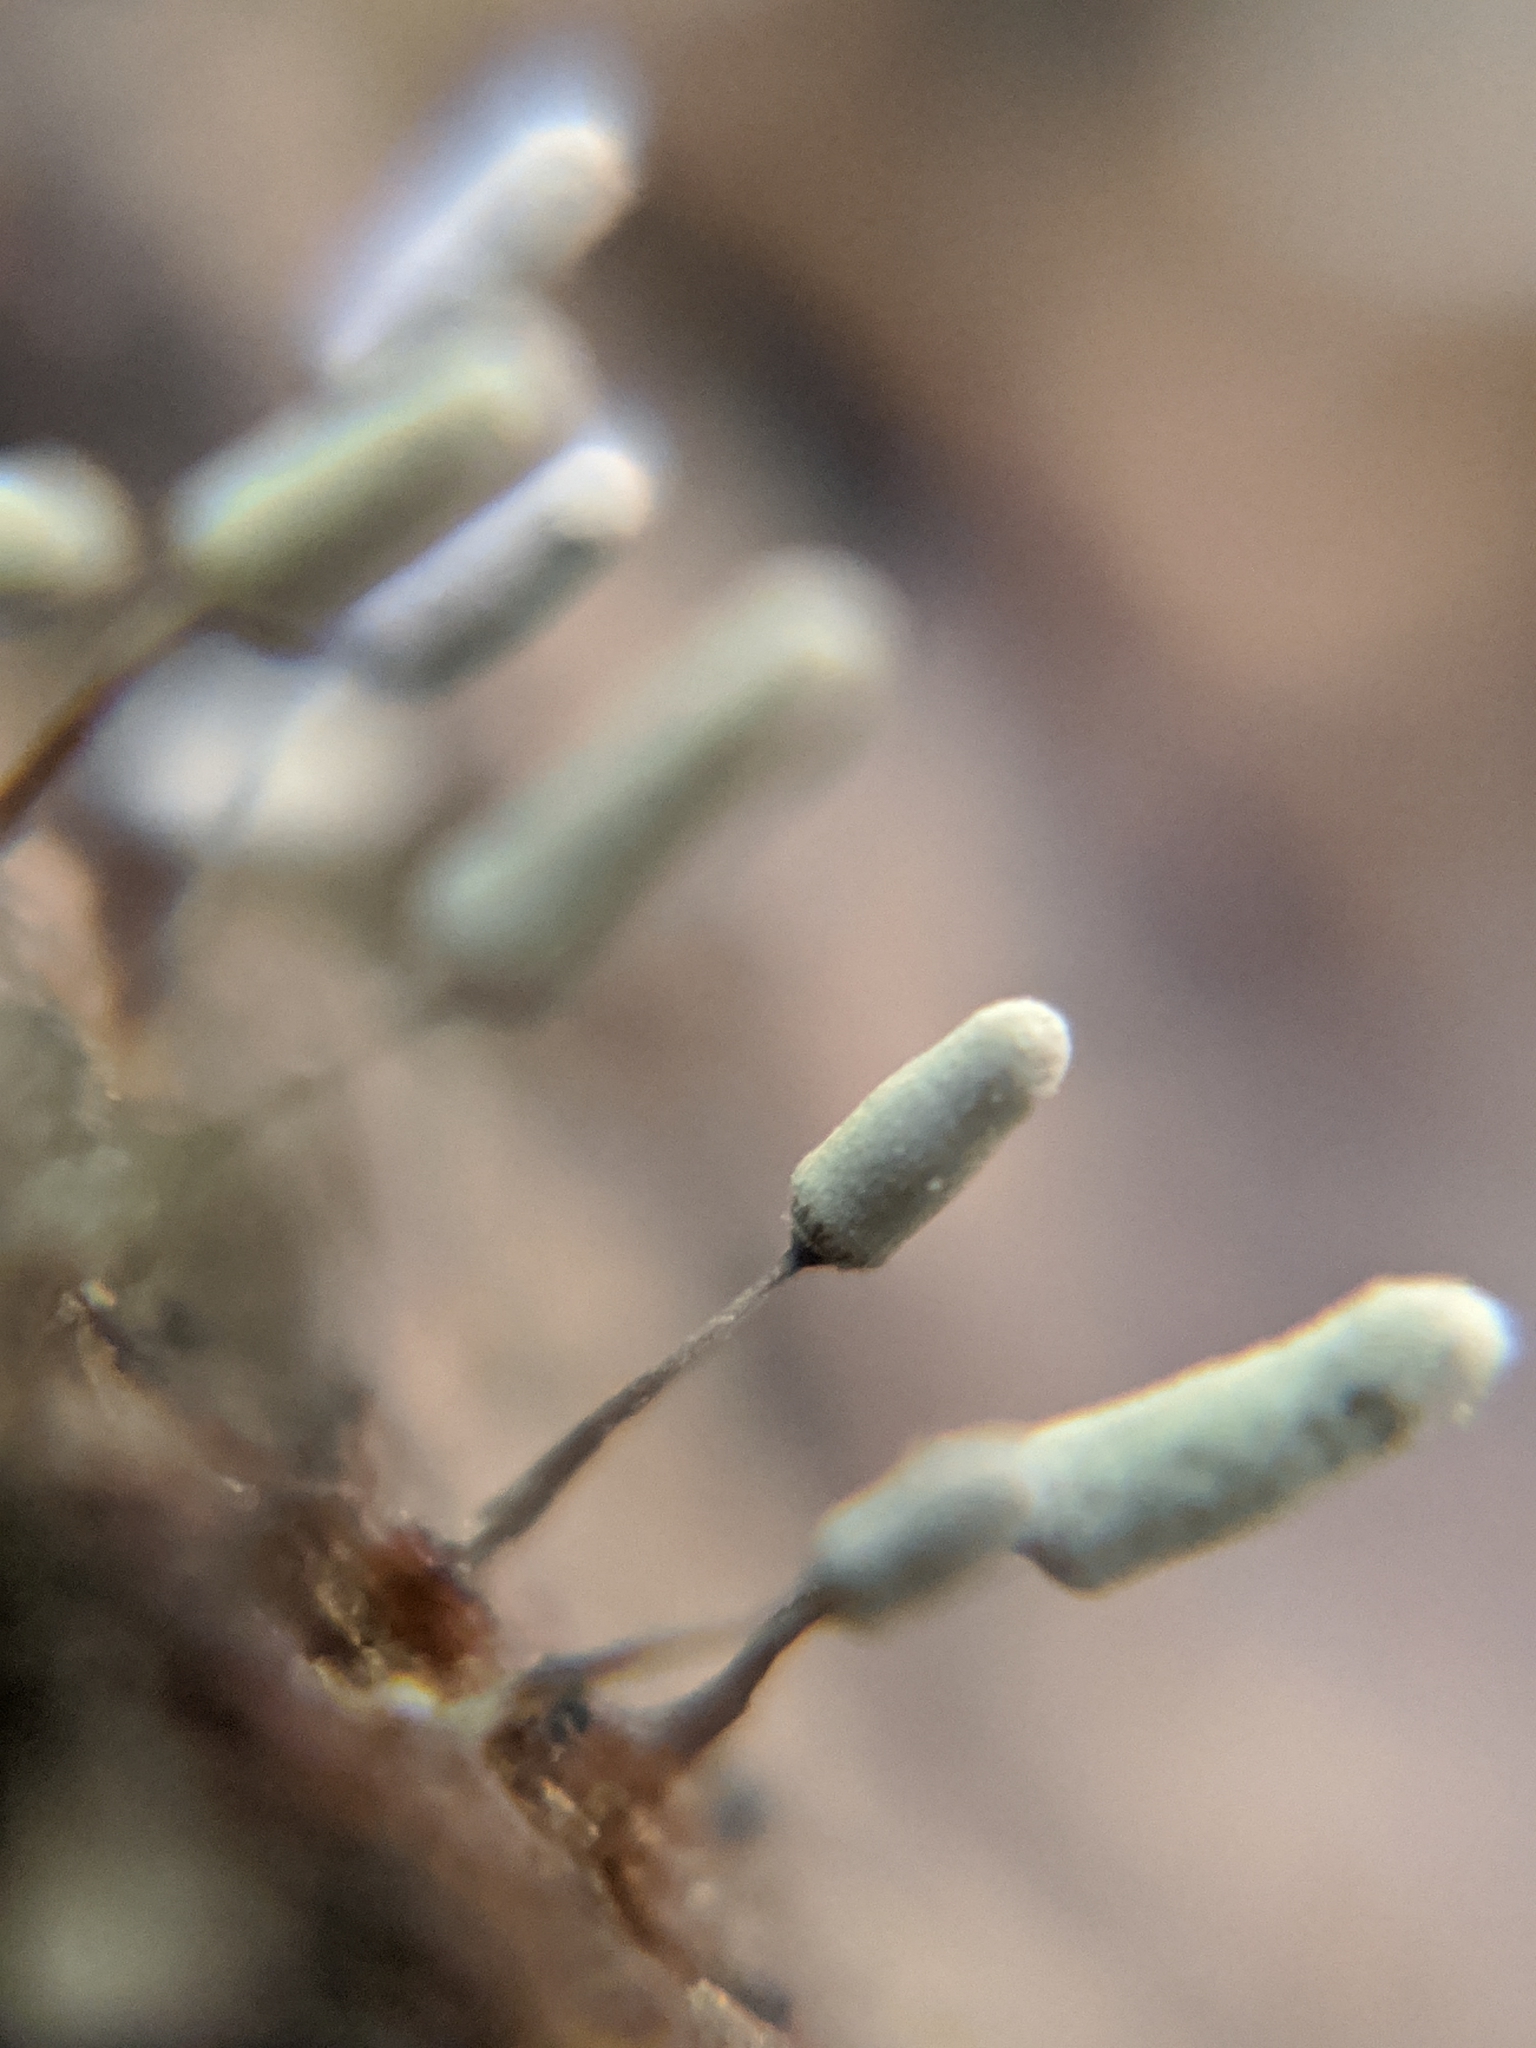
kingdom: Protozoa
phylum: Mycetozoa
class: Myxomycetes
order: Trichiales
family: Arcyriaceae
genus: Arcyria
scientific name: Arcyria cinerea
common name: White carnival candy slime mold
